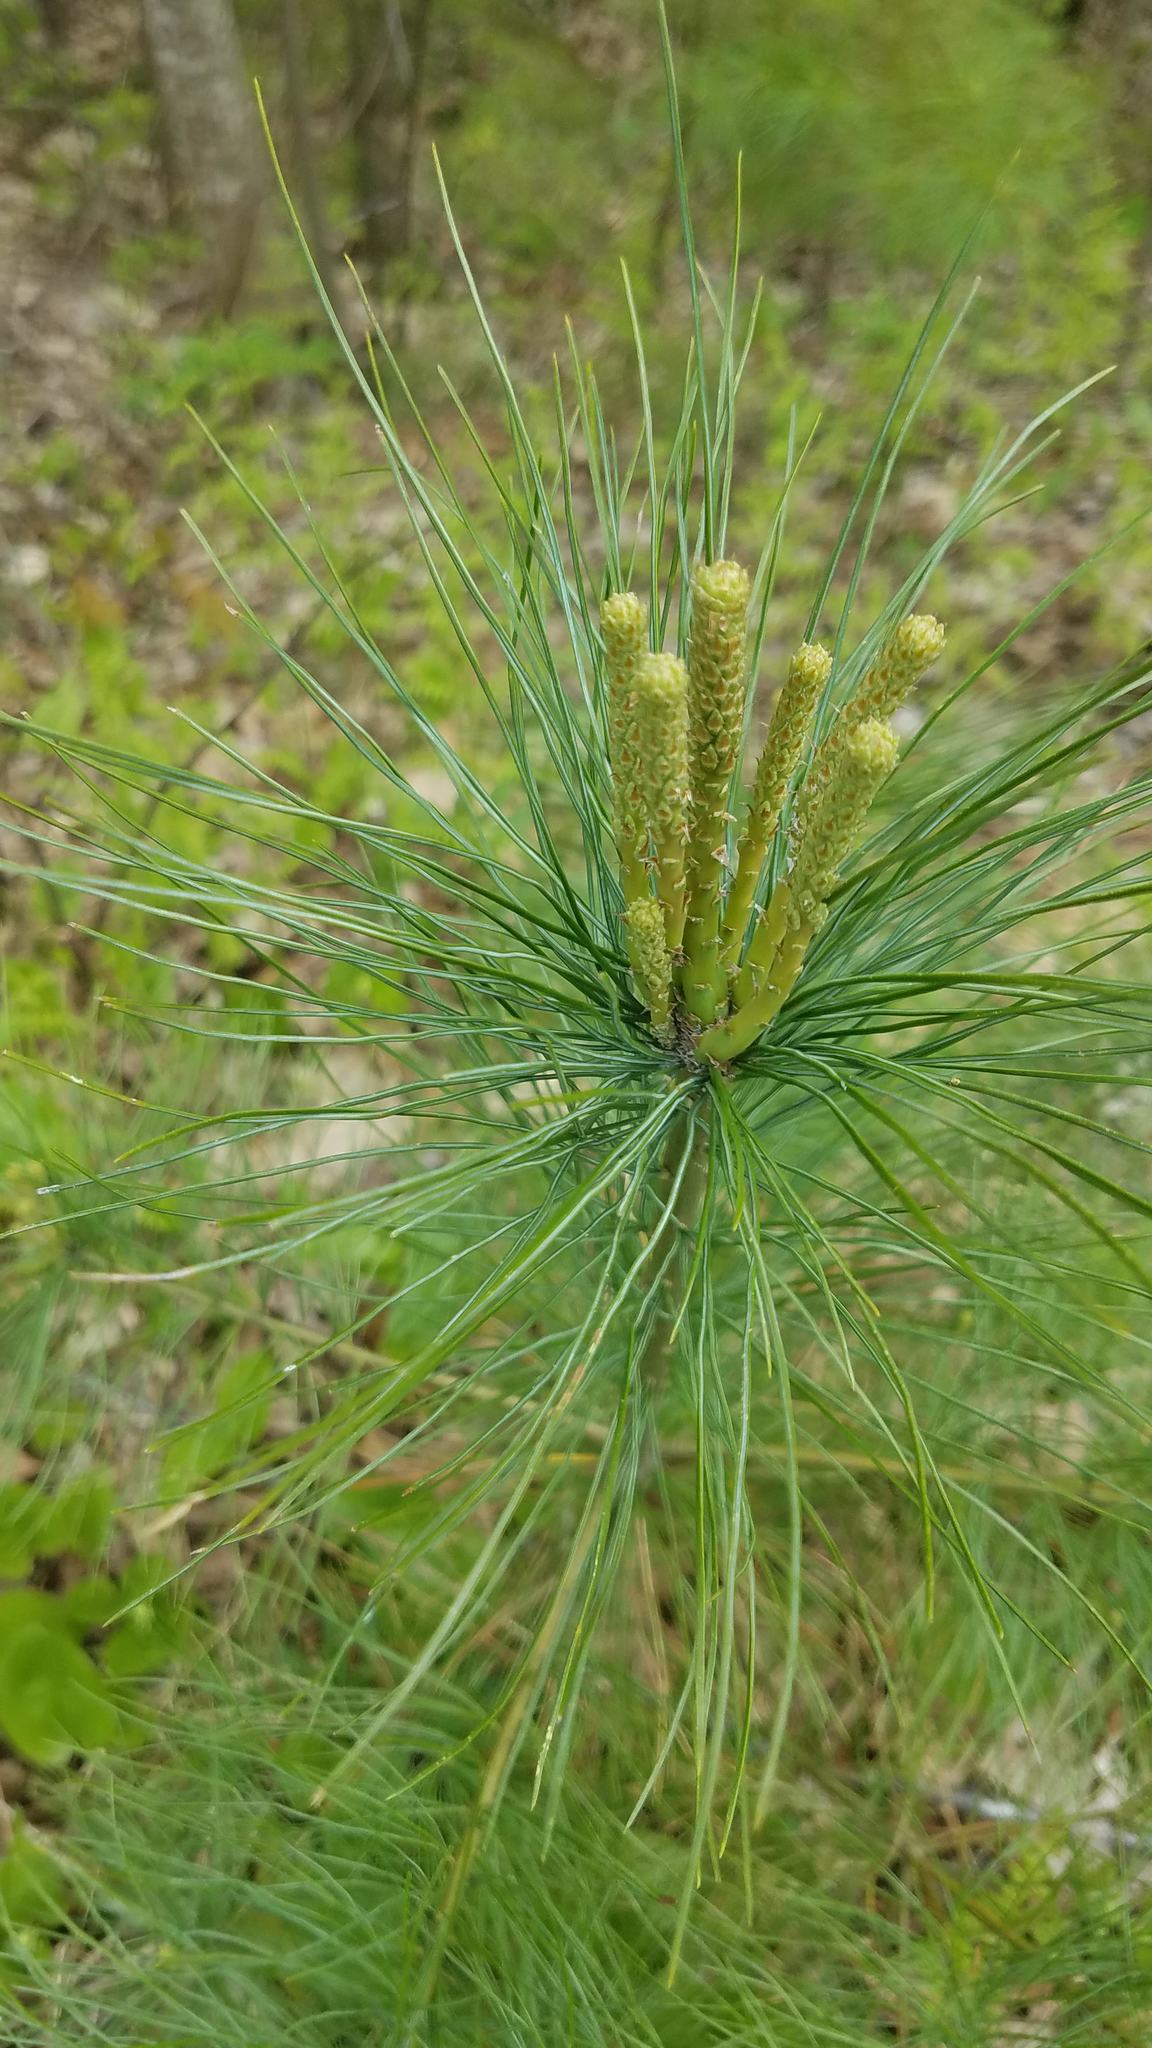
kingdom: Plantae
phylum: Tracheophyta
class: Pinopsida
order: Pinales
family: Pinaceae
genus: Pinus
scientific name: Pinus strobus
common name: Weymouth pine
